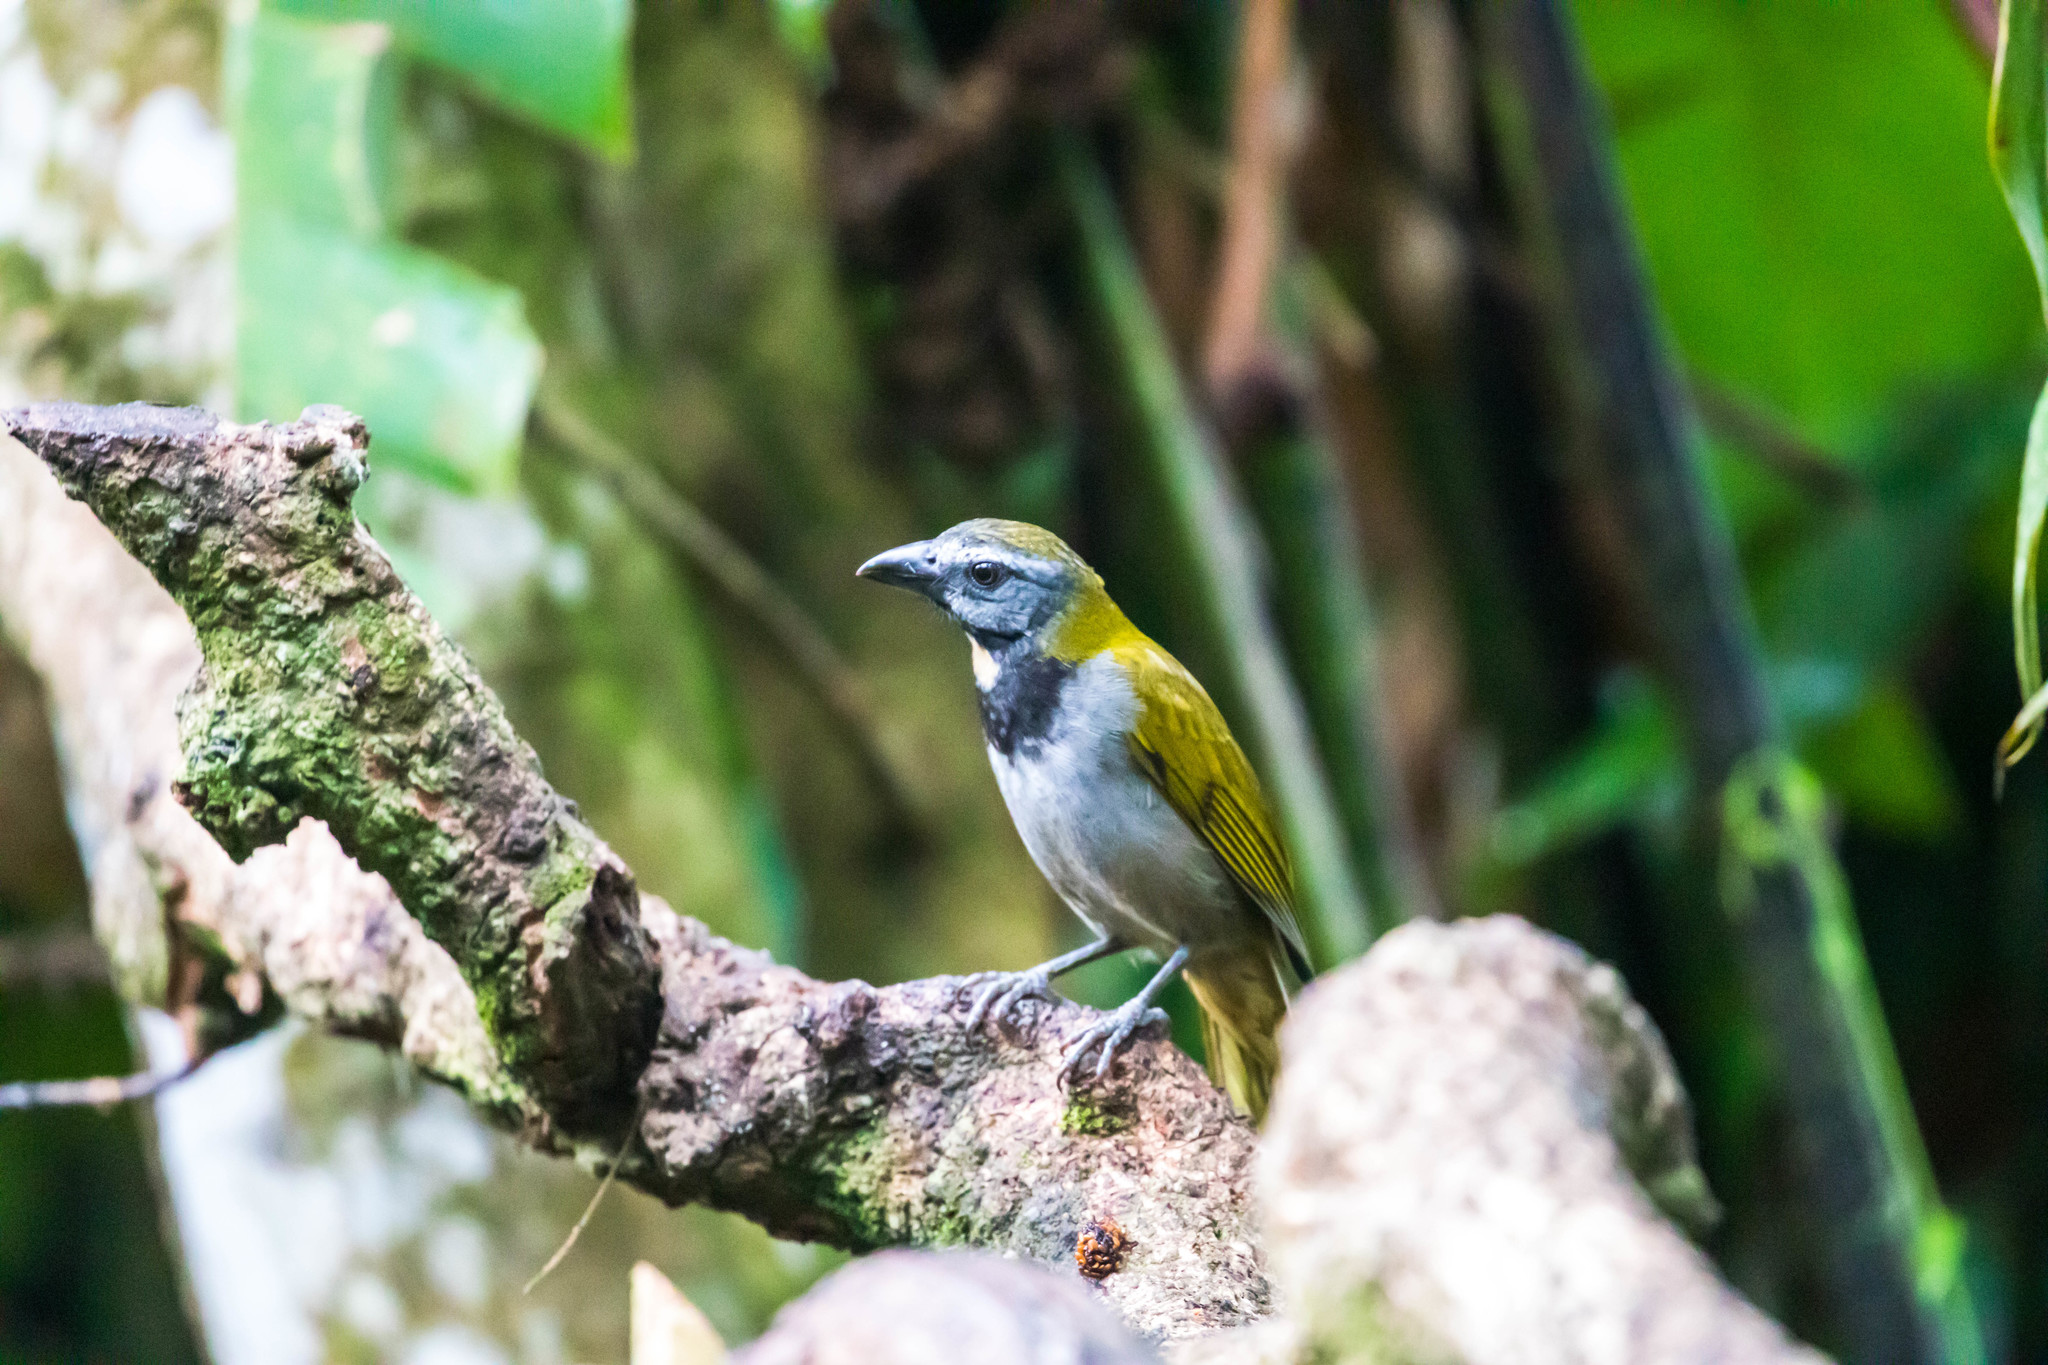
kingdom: Animalia
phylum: Chordata
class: Aves
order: Passeriformes
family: Thraupidae
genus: Saltator
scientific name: Saltator maximus
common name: Buff-throated saltator
